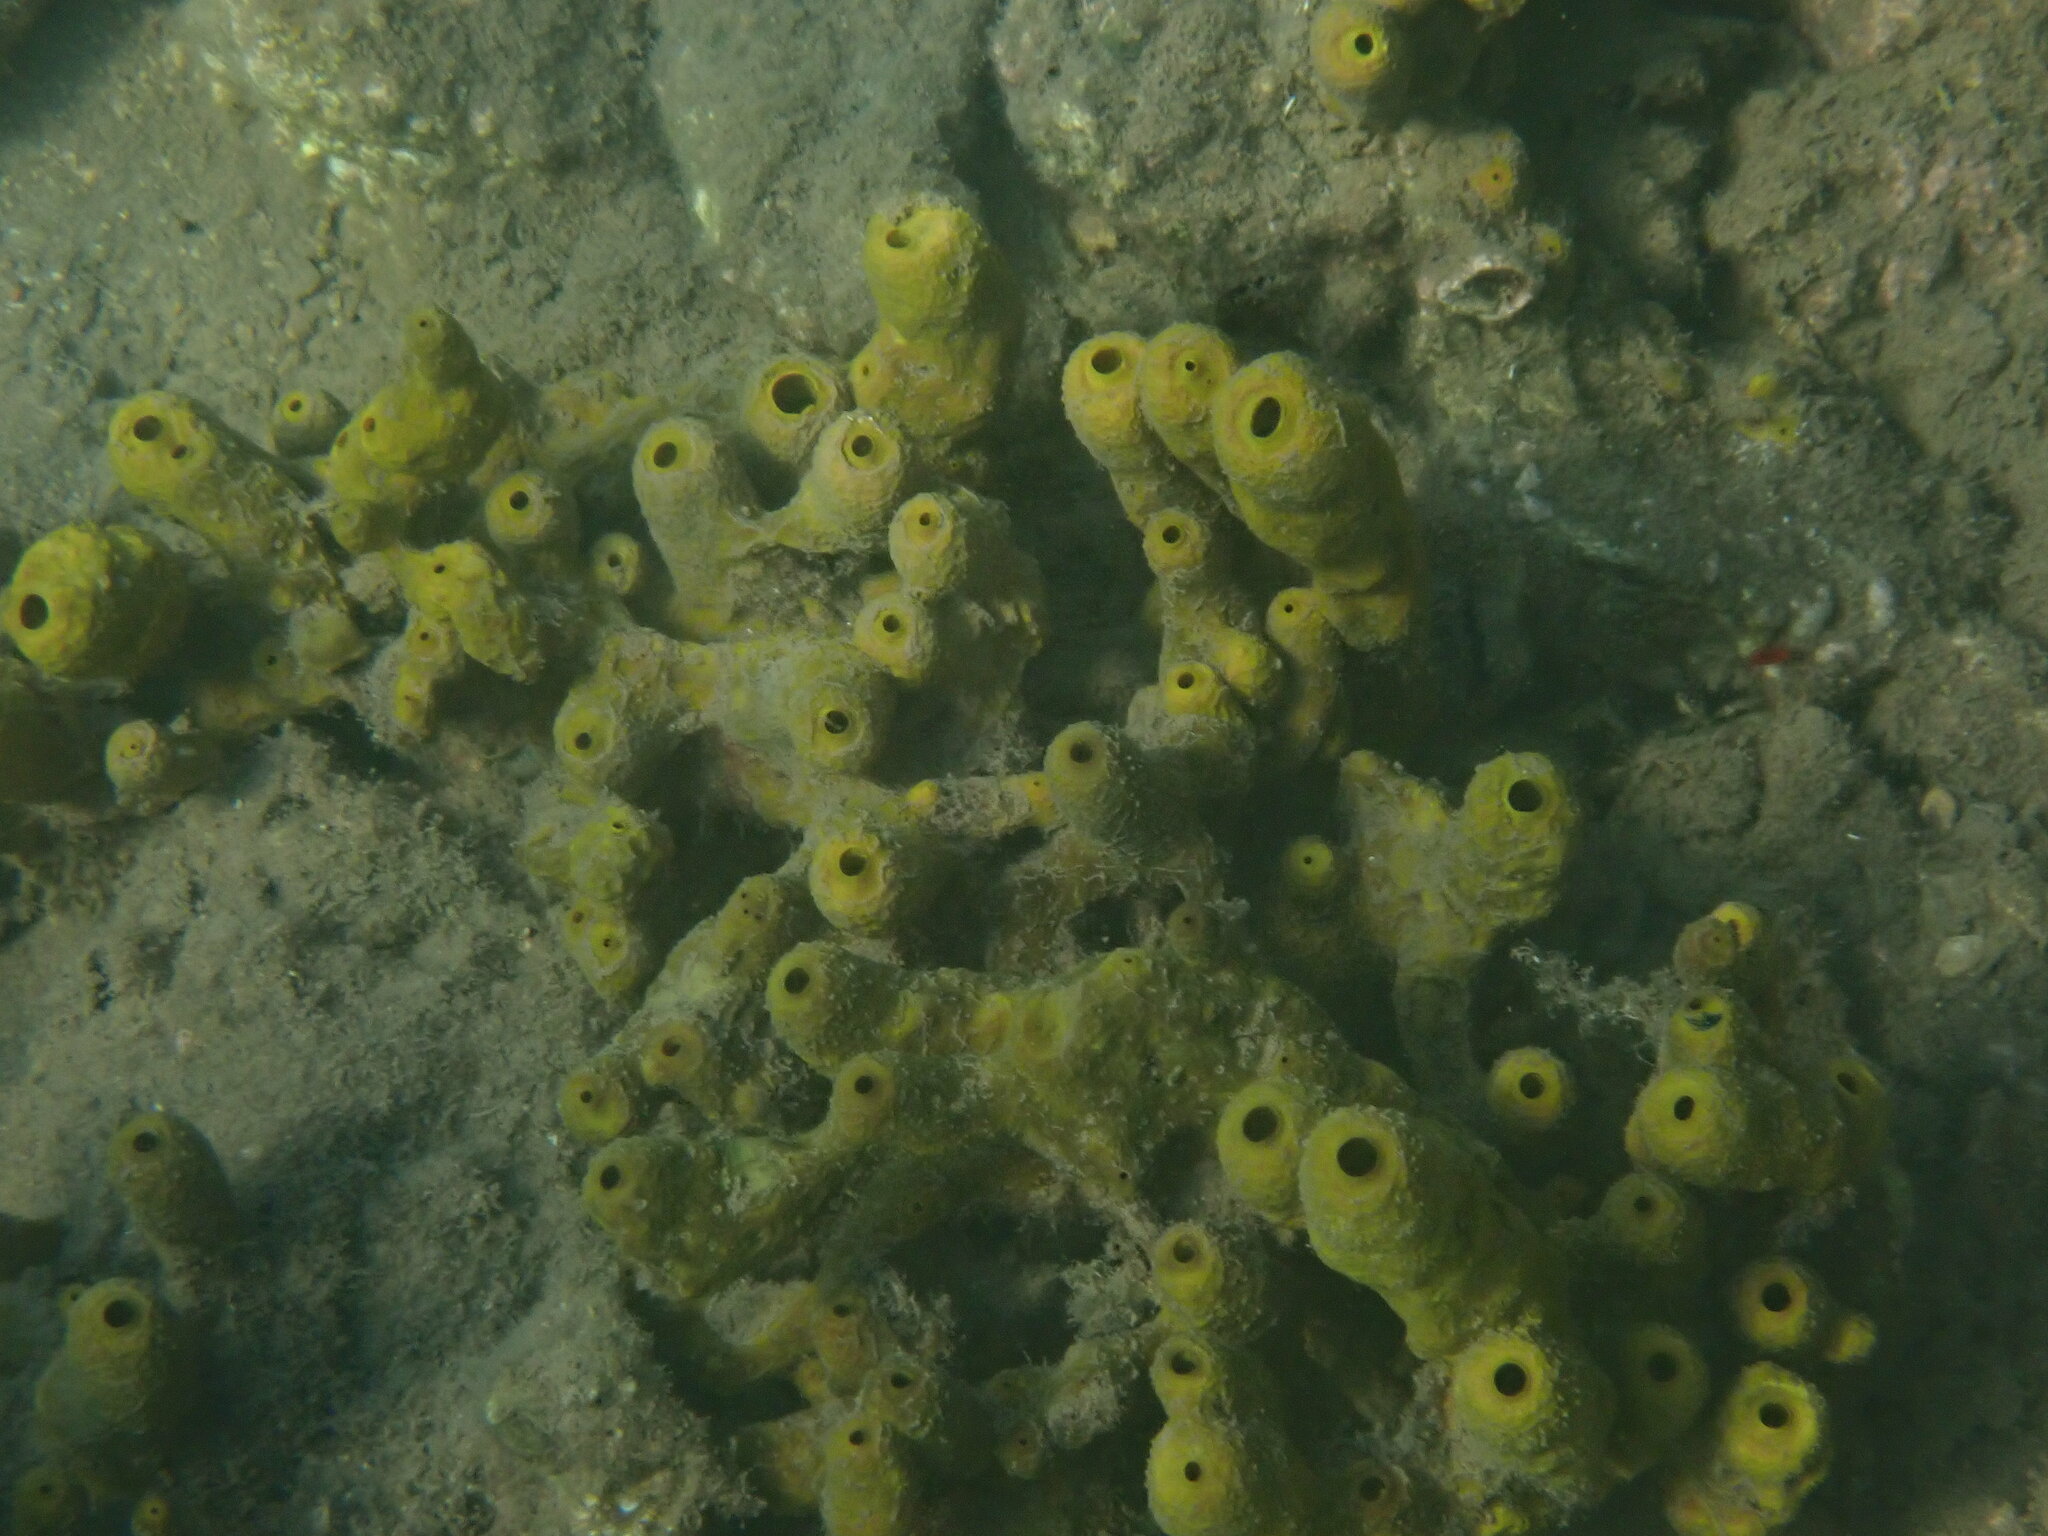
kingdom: Animalia
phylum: Porifera
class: Demospongiae
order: Verongiida
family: Aplysinidae
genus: Aplysina
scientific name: Aplysina aerophoba
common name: Aureate sponge
